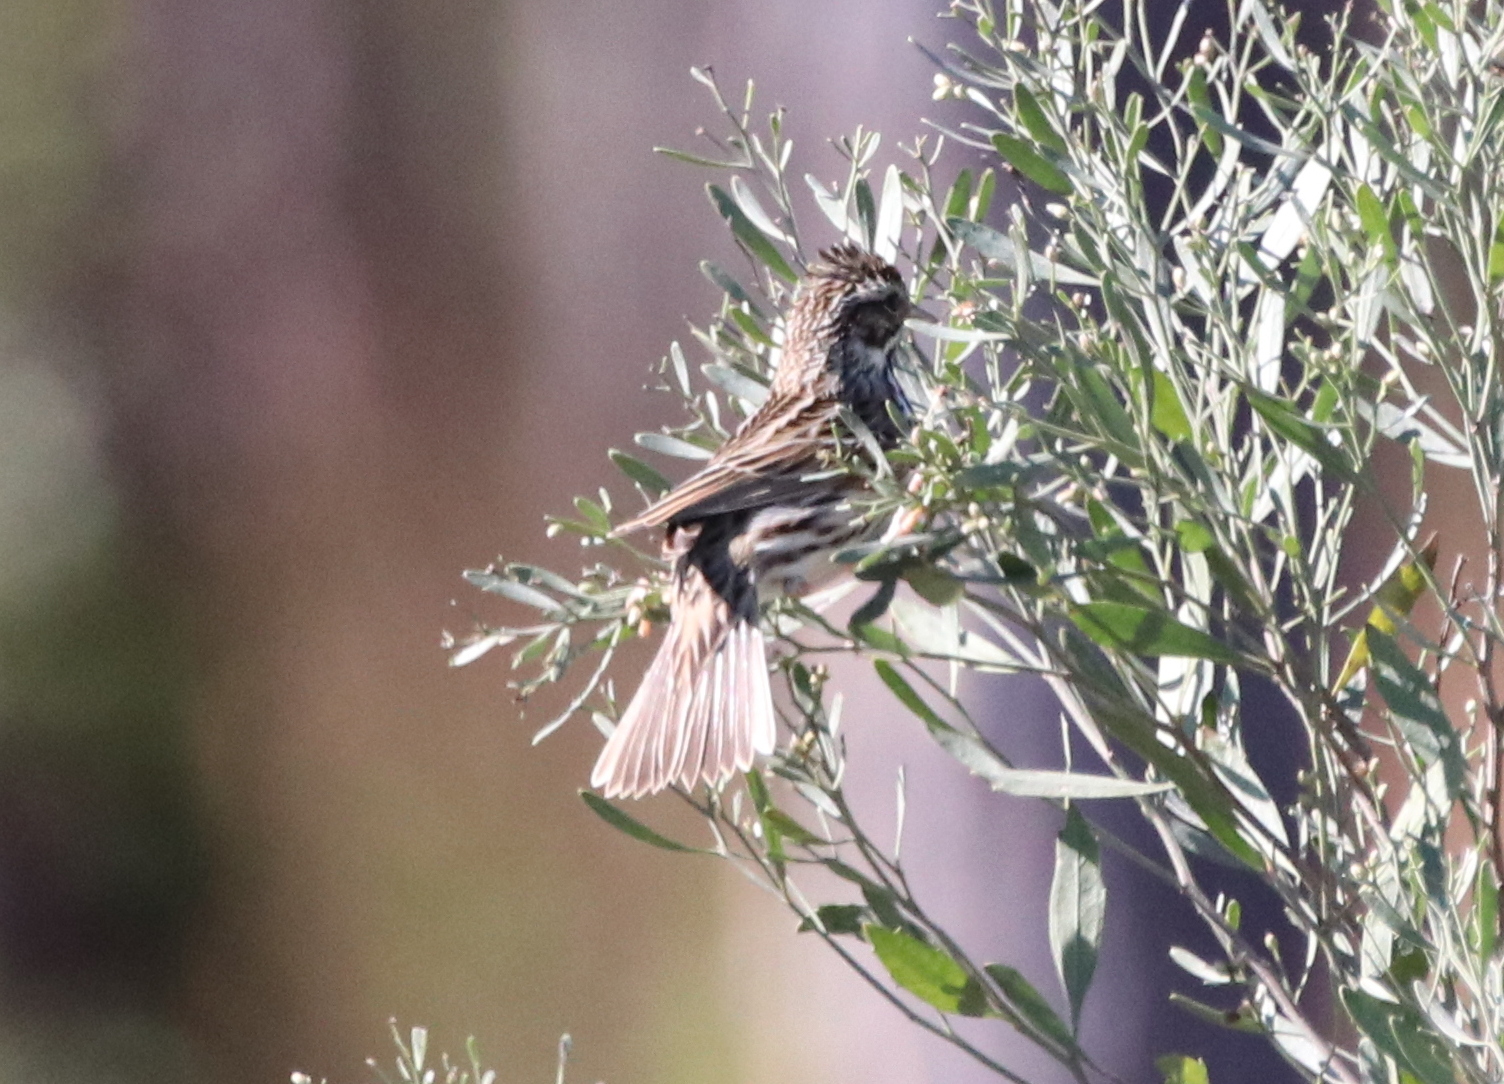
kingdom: Animalia
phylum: Chordata
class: Aves
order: Passeriformes
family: Passerellidae
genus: Passerculus
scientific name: Passerculus sandwichensis
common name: Savannah sparrow
